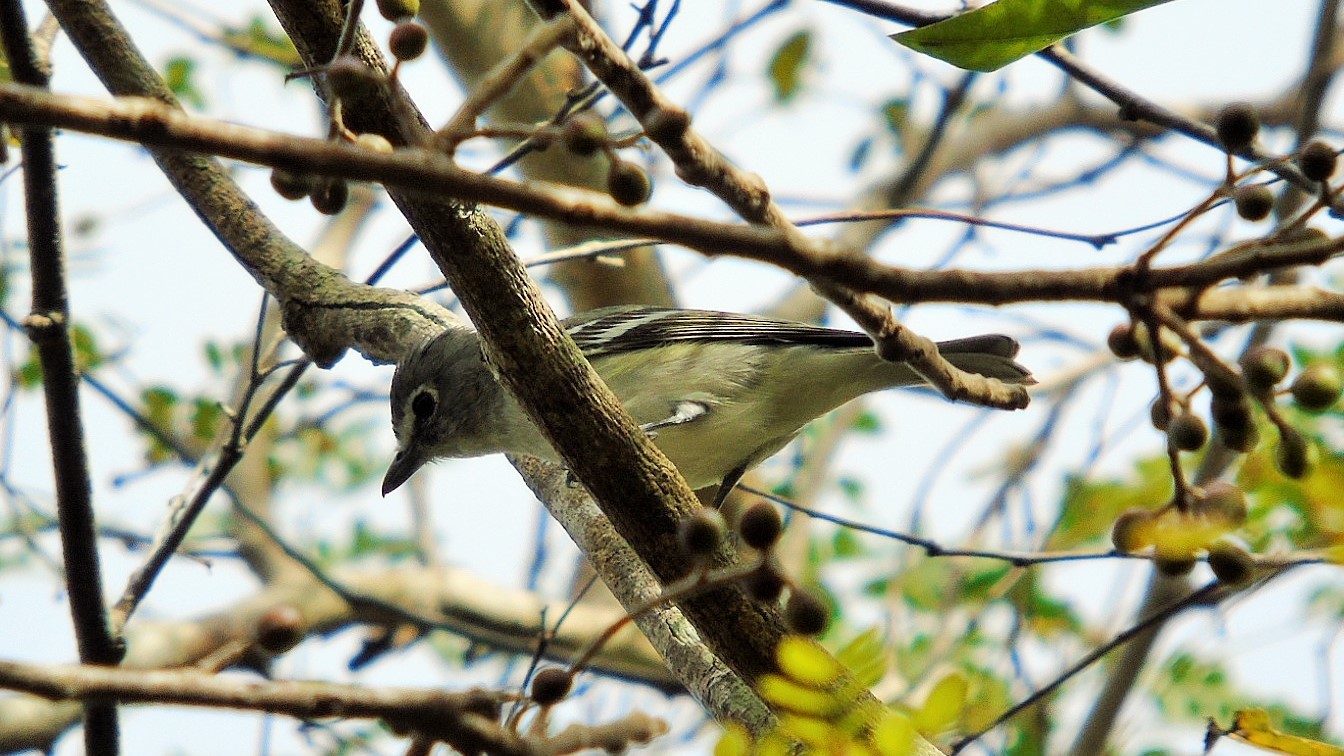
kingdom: Animalia
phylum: Chordata
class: Aves
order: Passeriformes
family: Vireonidae
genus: Vireo
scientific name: Vireo cassinii
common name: Cassin's vireo
